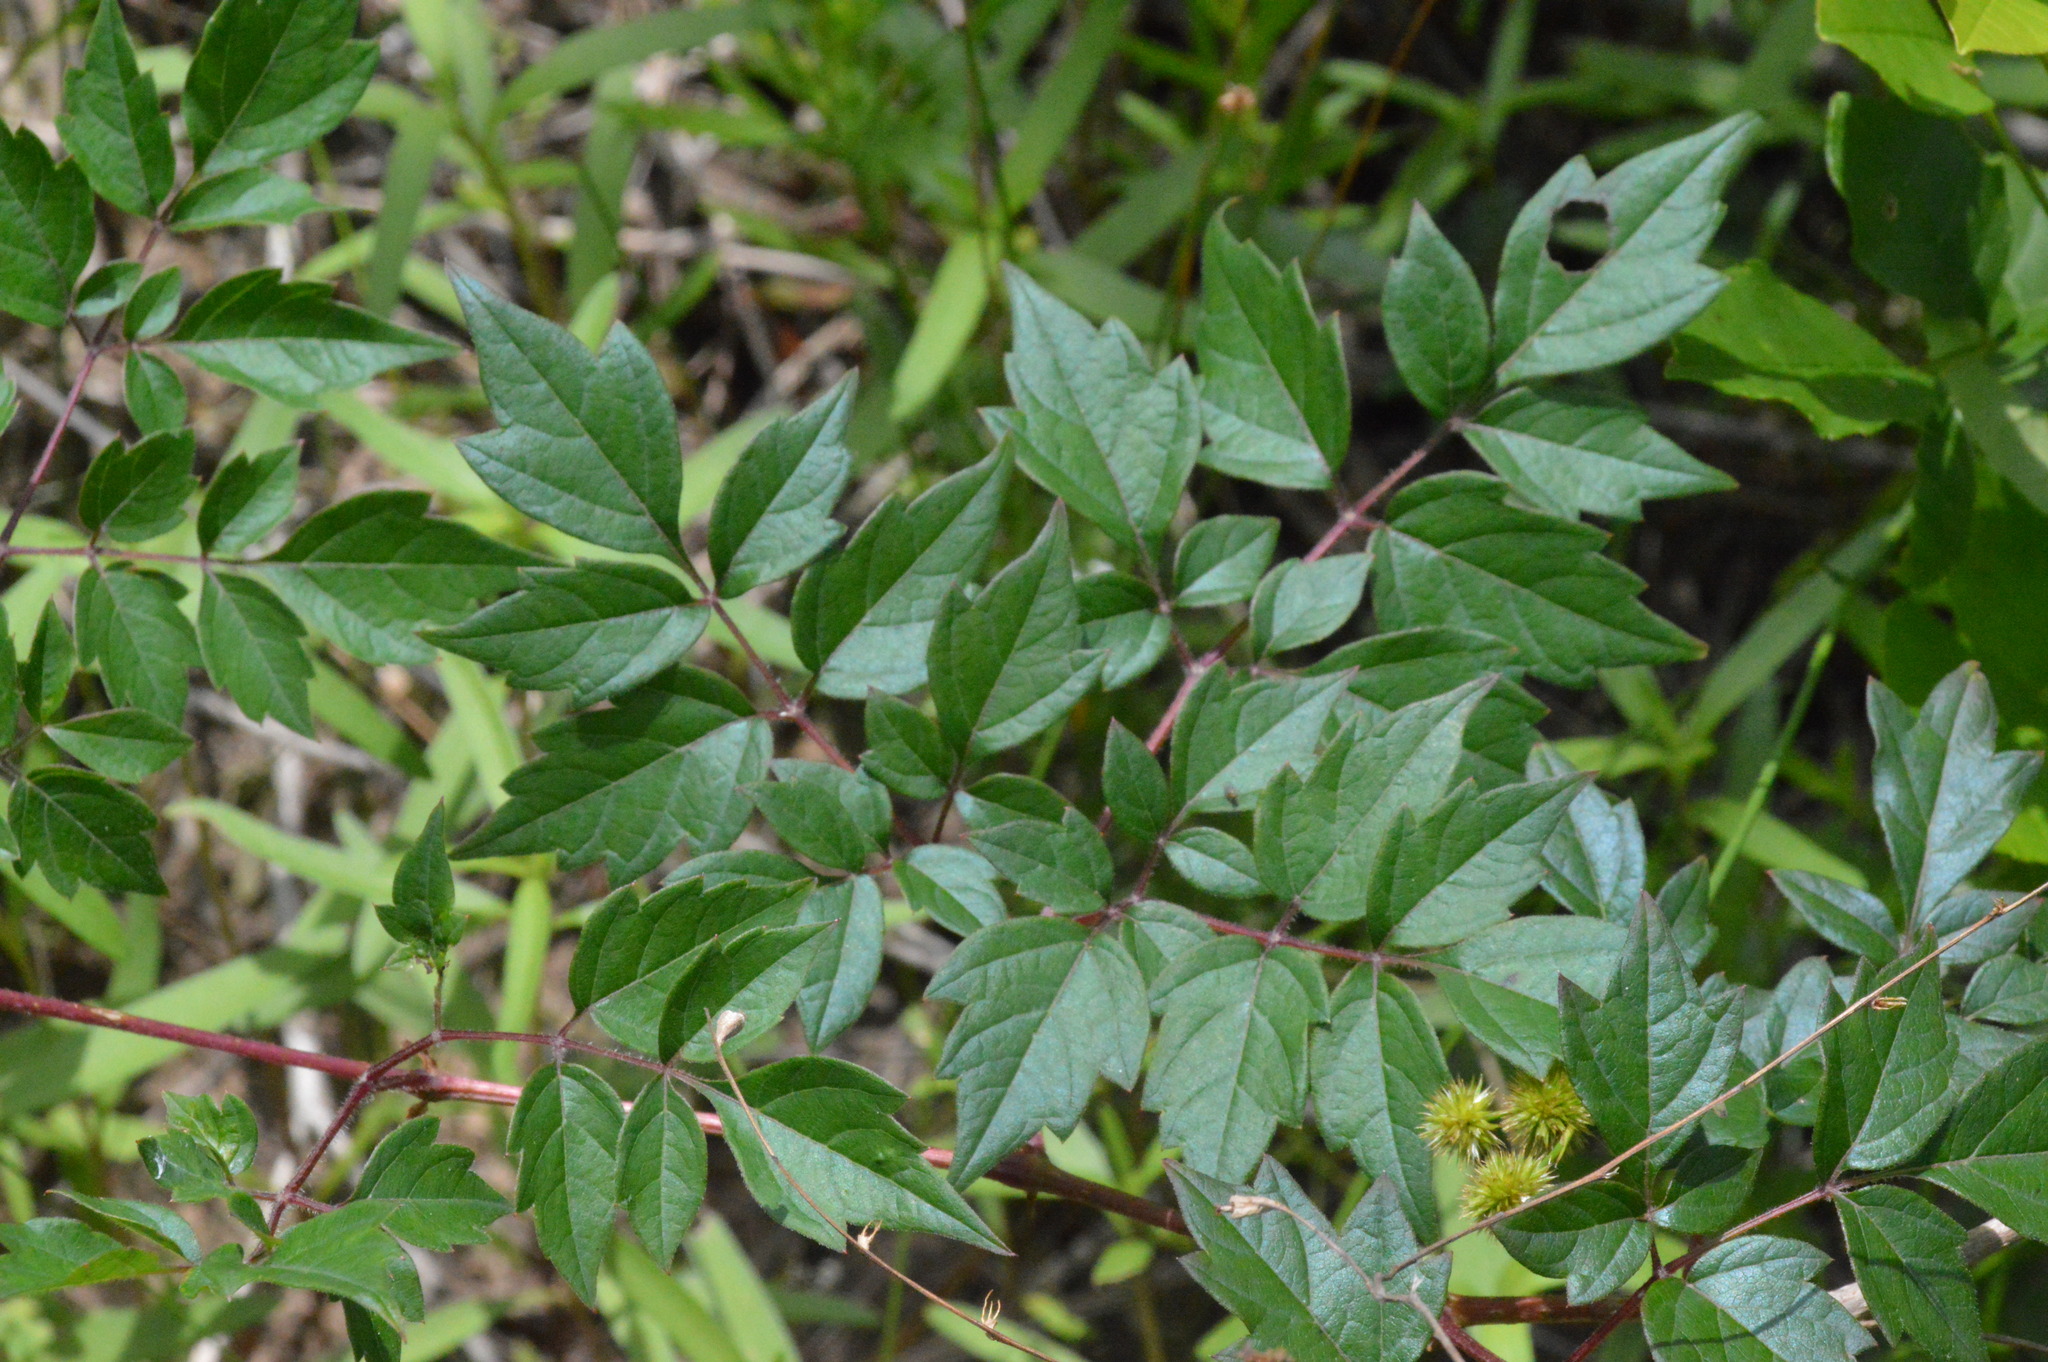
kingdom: Plantae
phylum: Tracheophyta
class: Magnoliopsida
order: Vitales
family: Vitaceae
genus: Nekemias
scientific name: Nekemias arborea
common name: Peppervine
